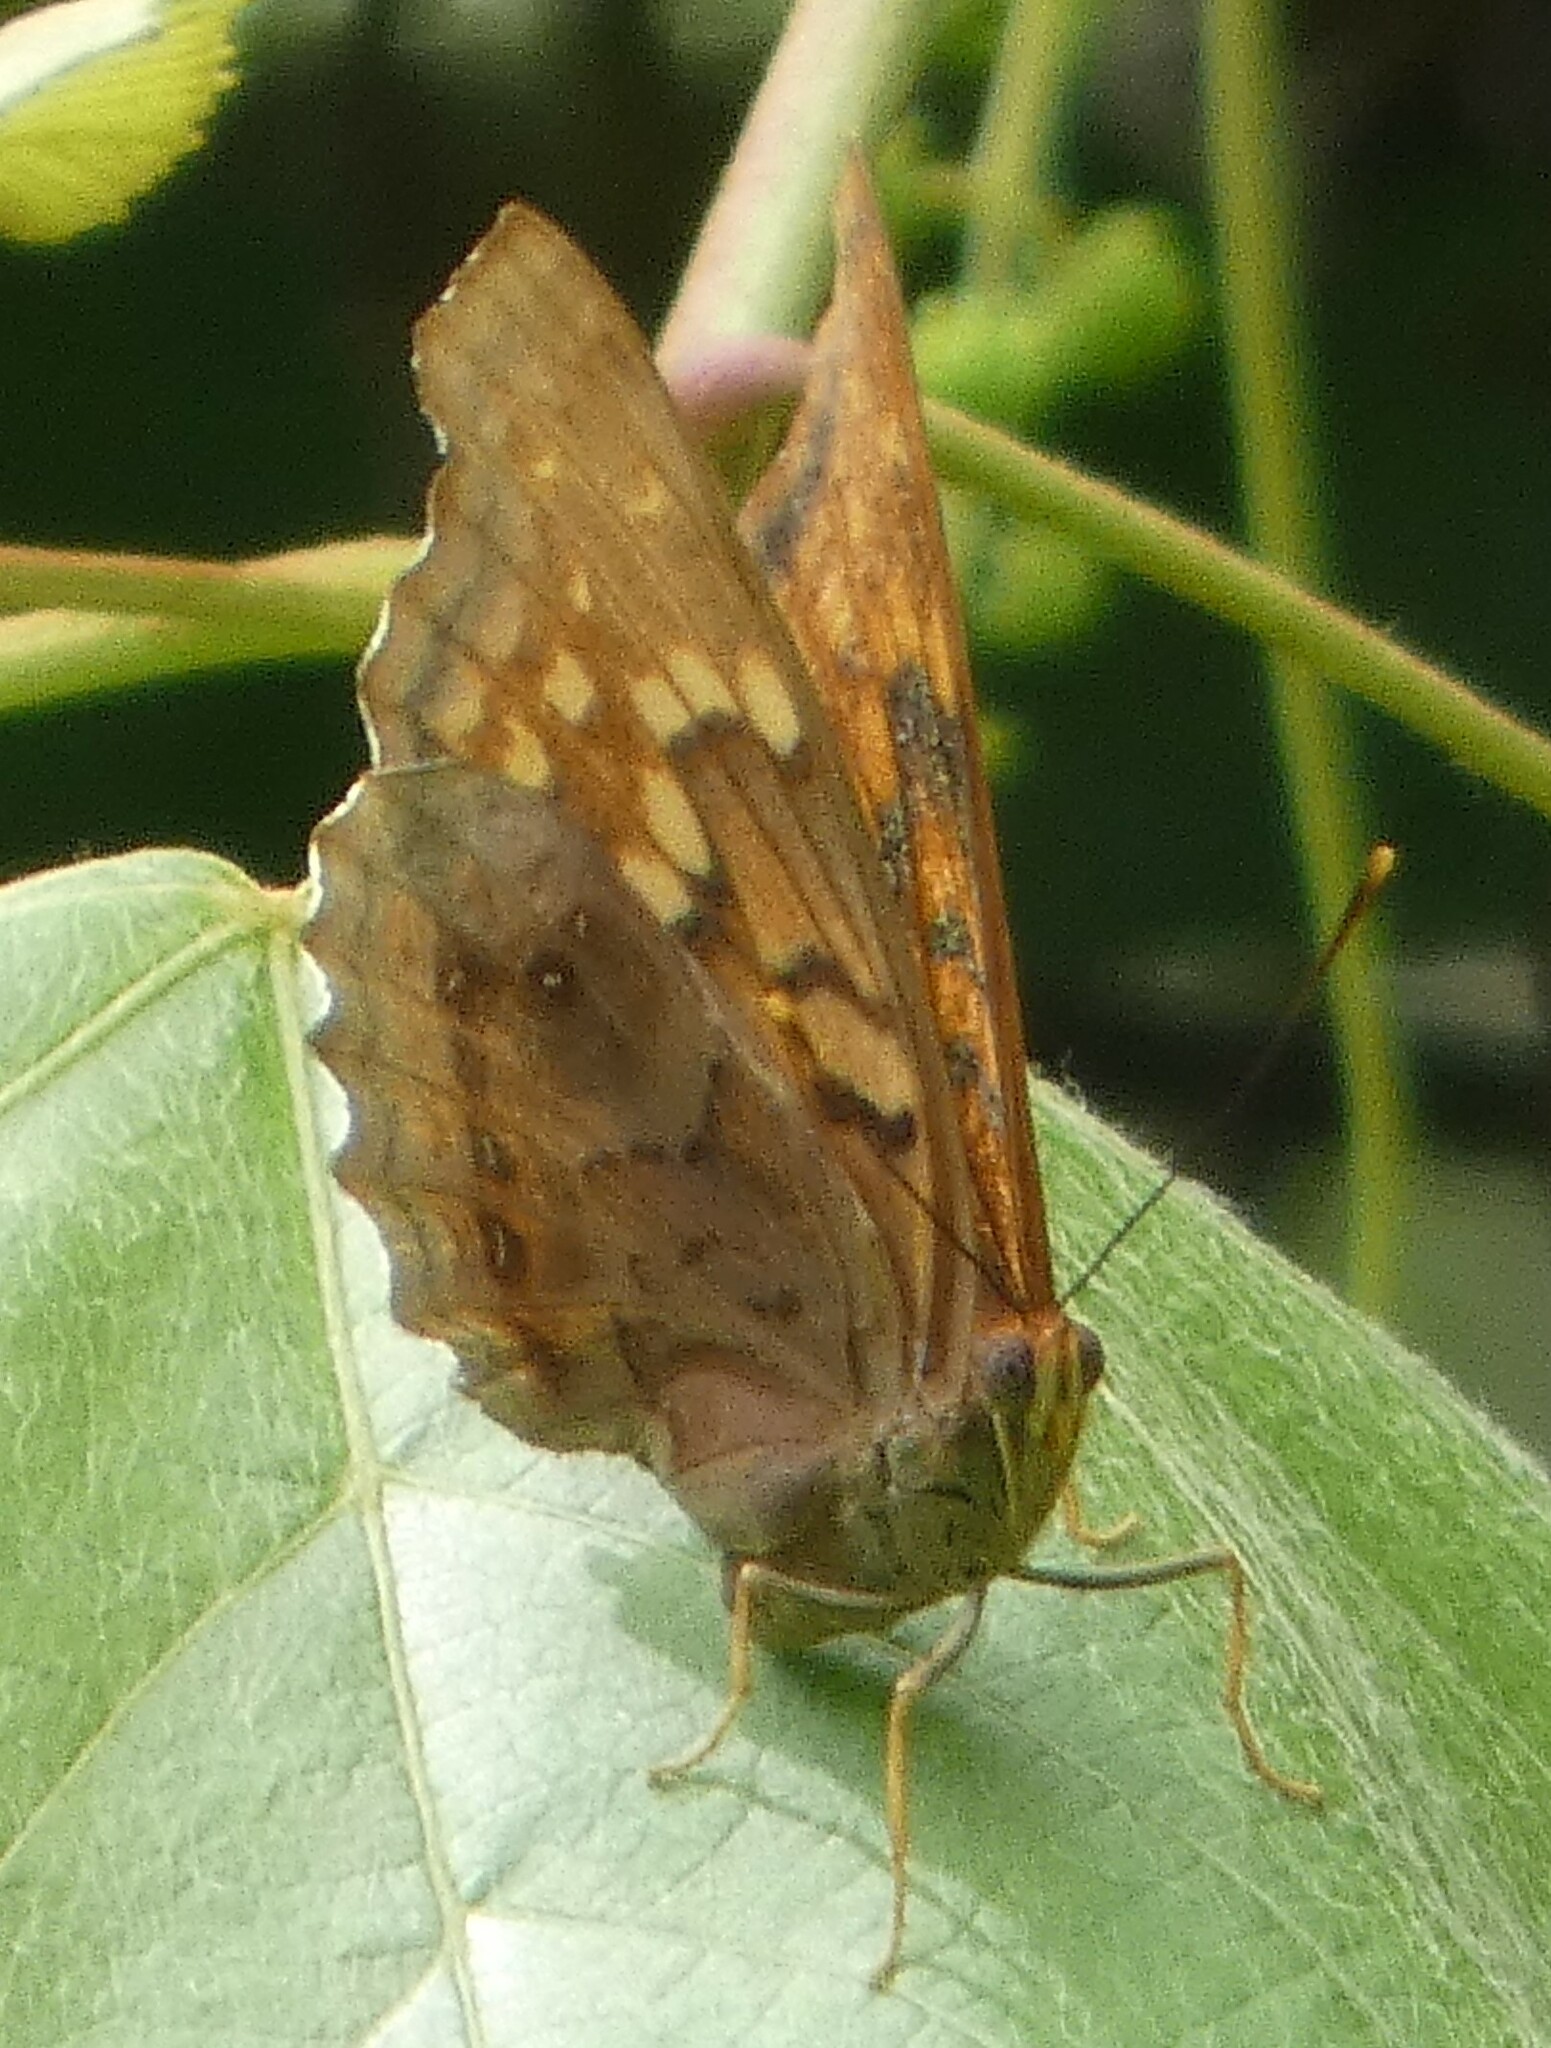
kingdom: Animalia
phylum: Arthropoda
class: Insecta
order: Lepidoptera
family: Nymphalidae
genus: Asterocampa
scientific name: Asterocampa clyton
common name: Tawny emperor
